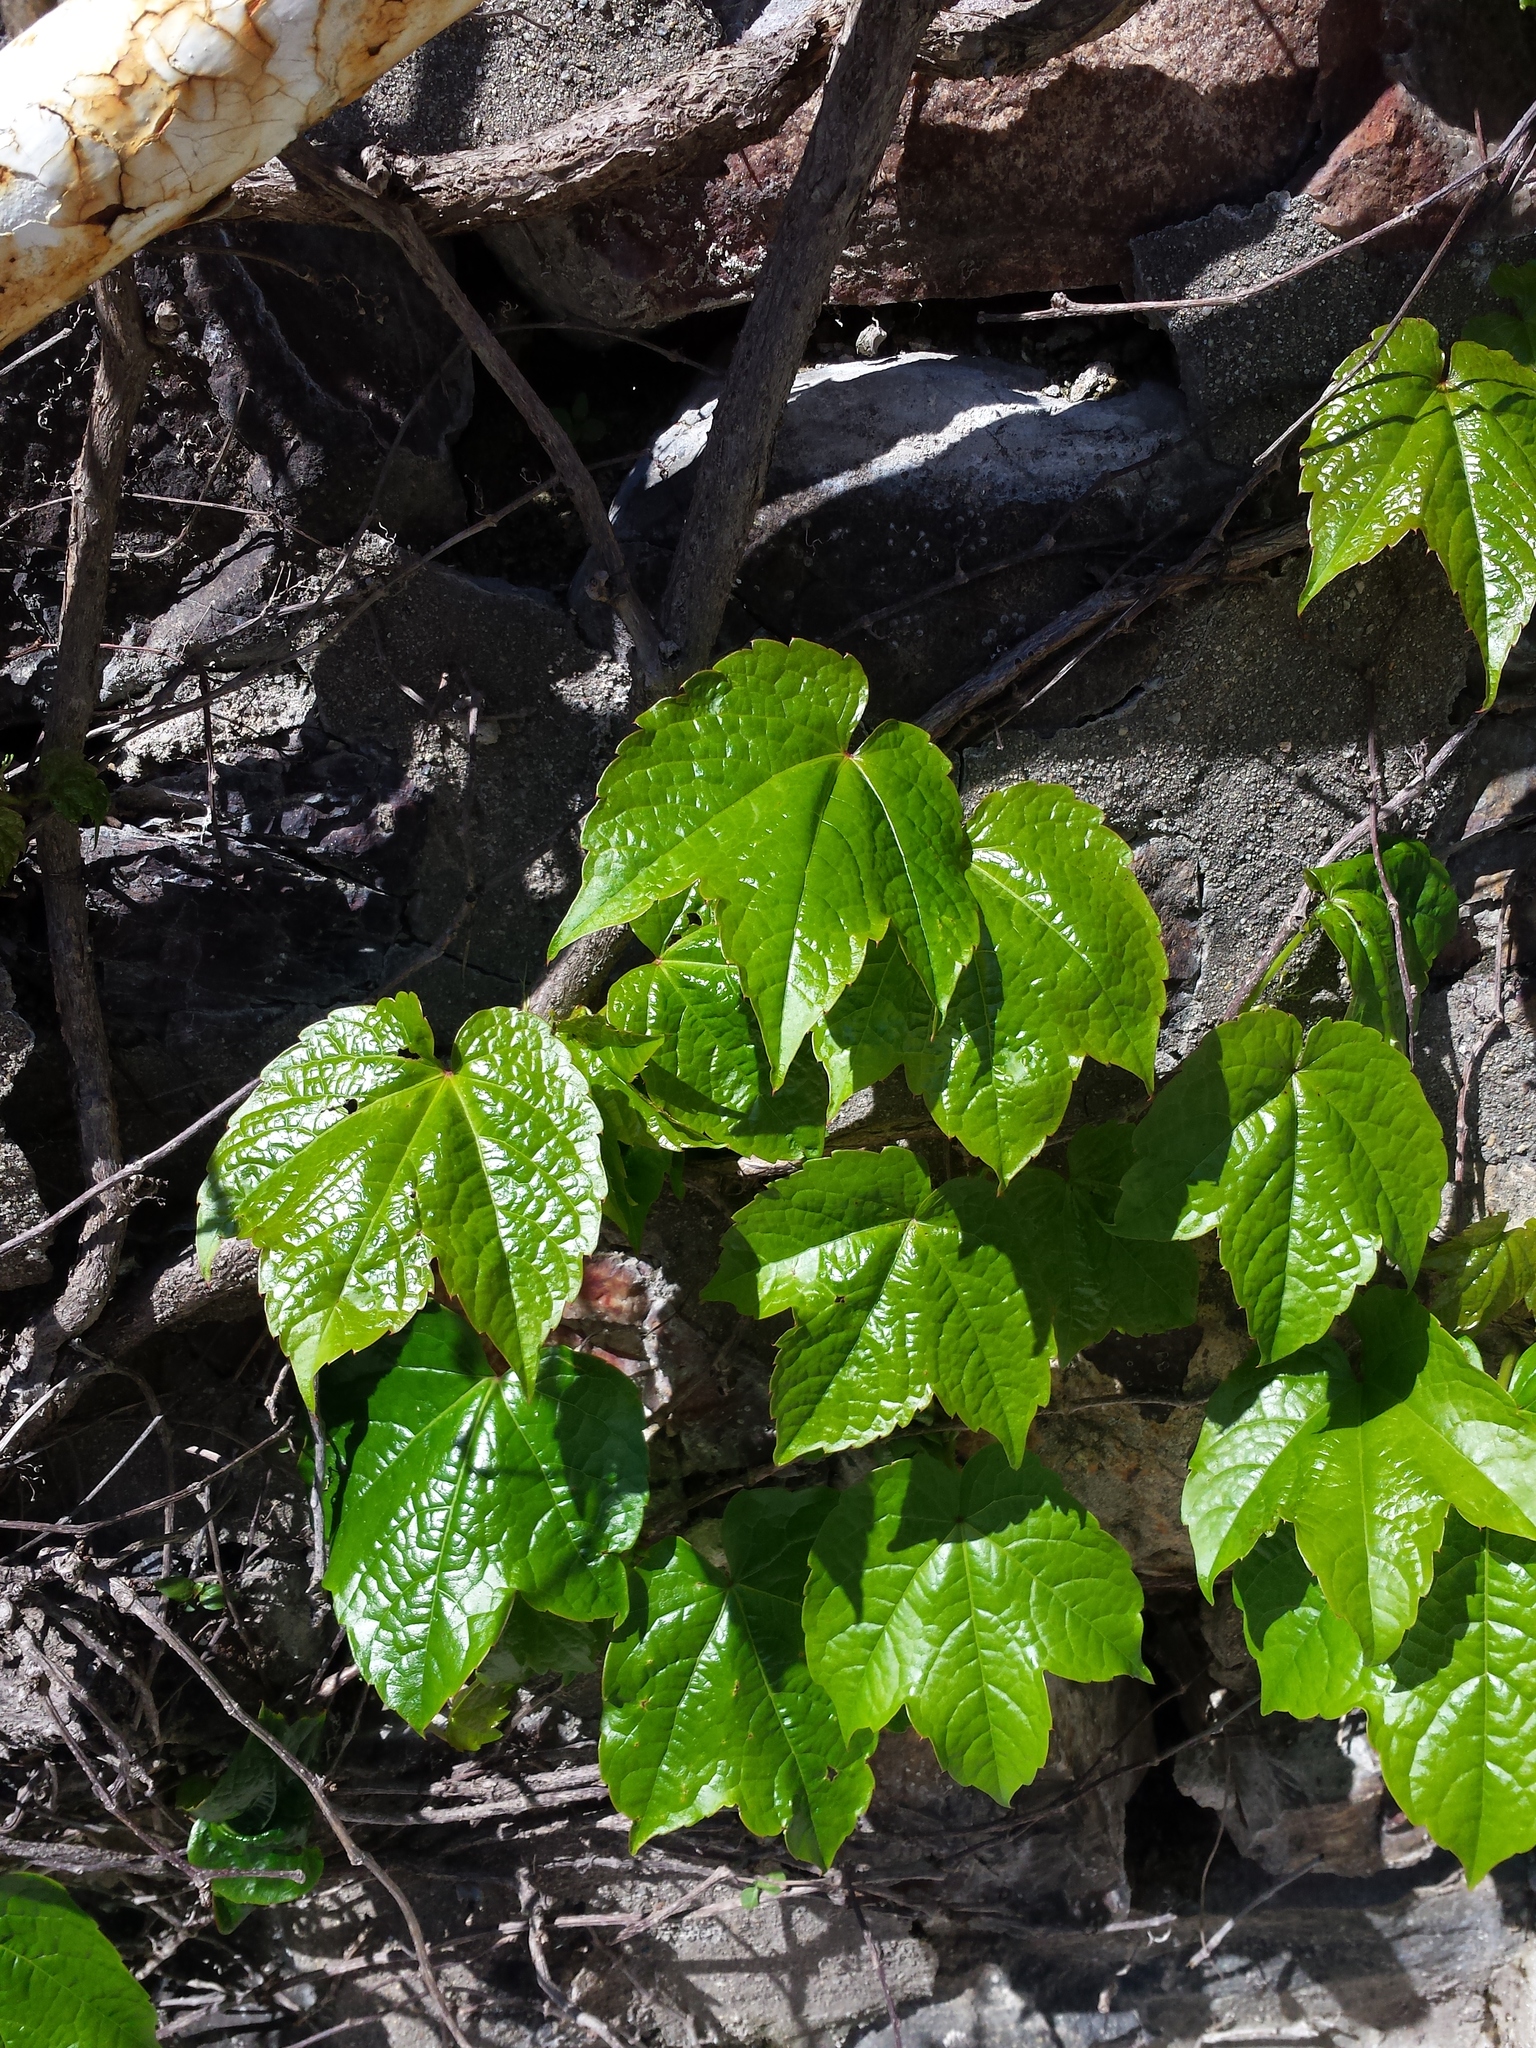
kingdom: Plantae
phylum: Tracheophyta
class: Magnoliopsida
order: Vitales
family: Vitaceae
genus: Parthenocissus
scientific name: Parthenocissus tricuspidata
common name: Boston ivy
